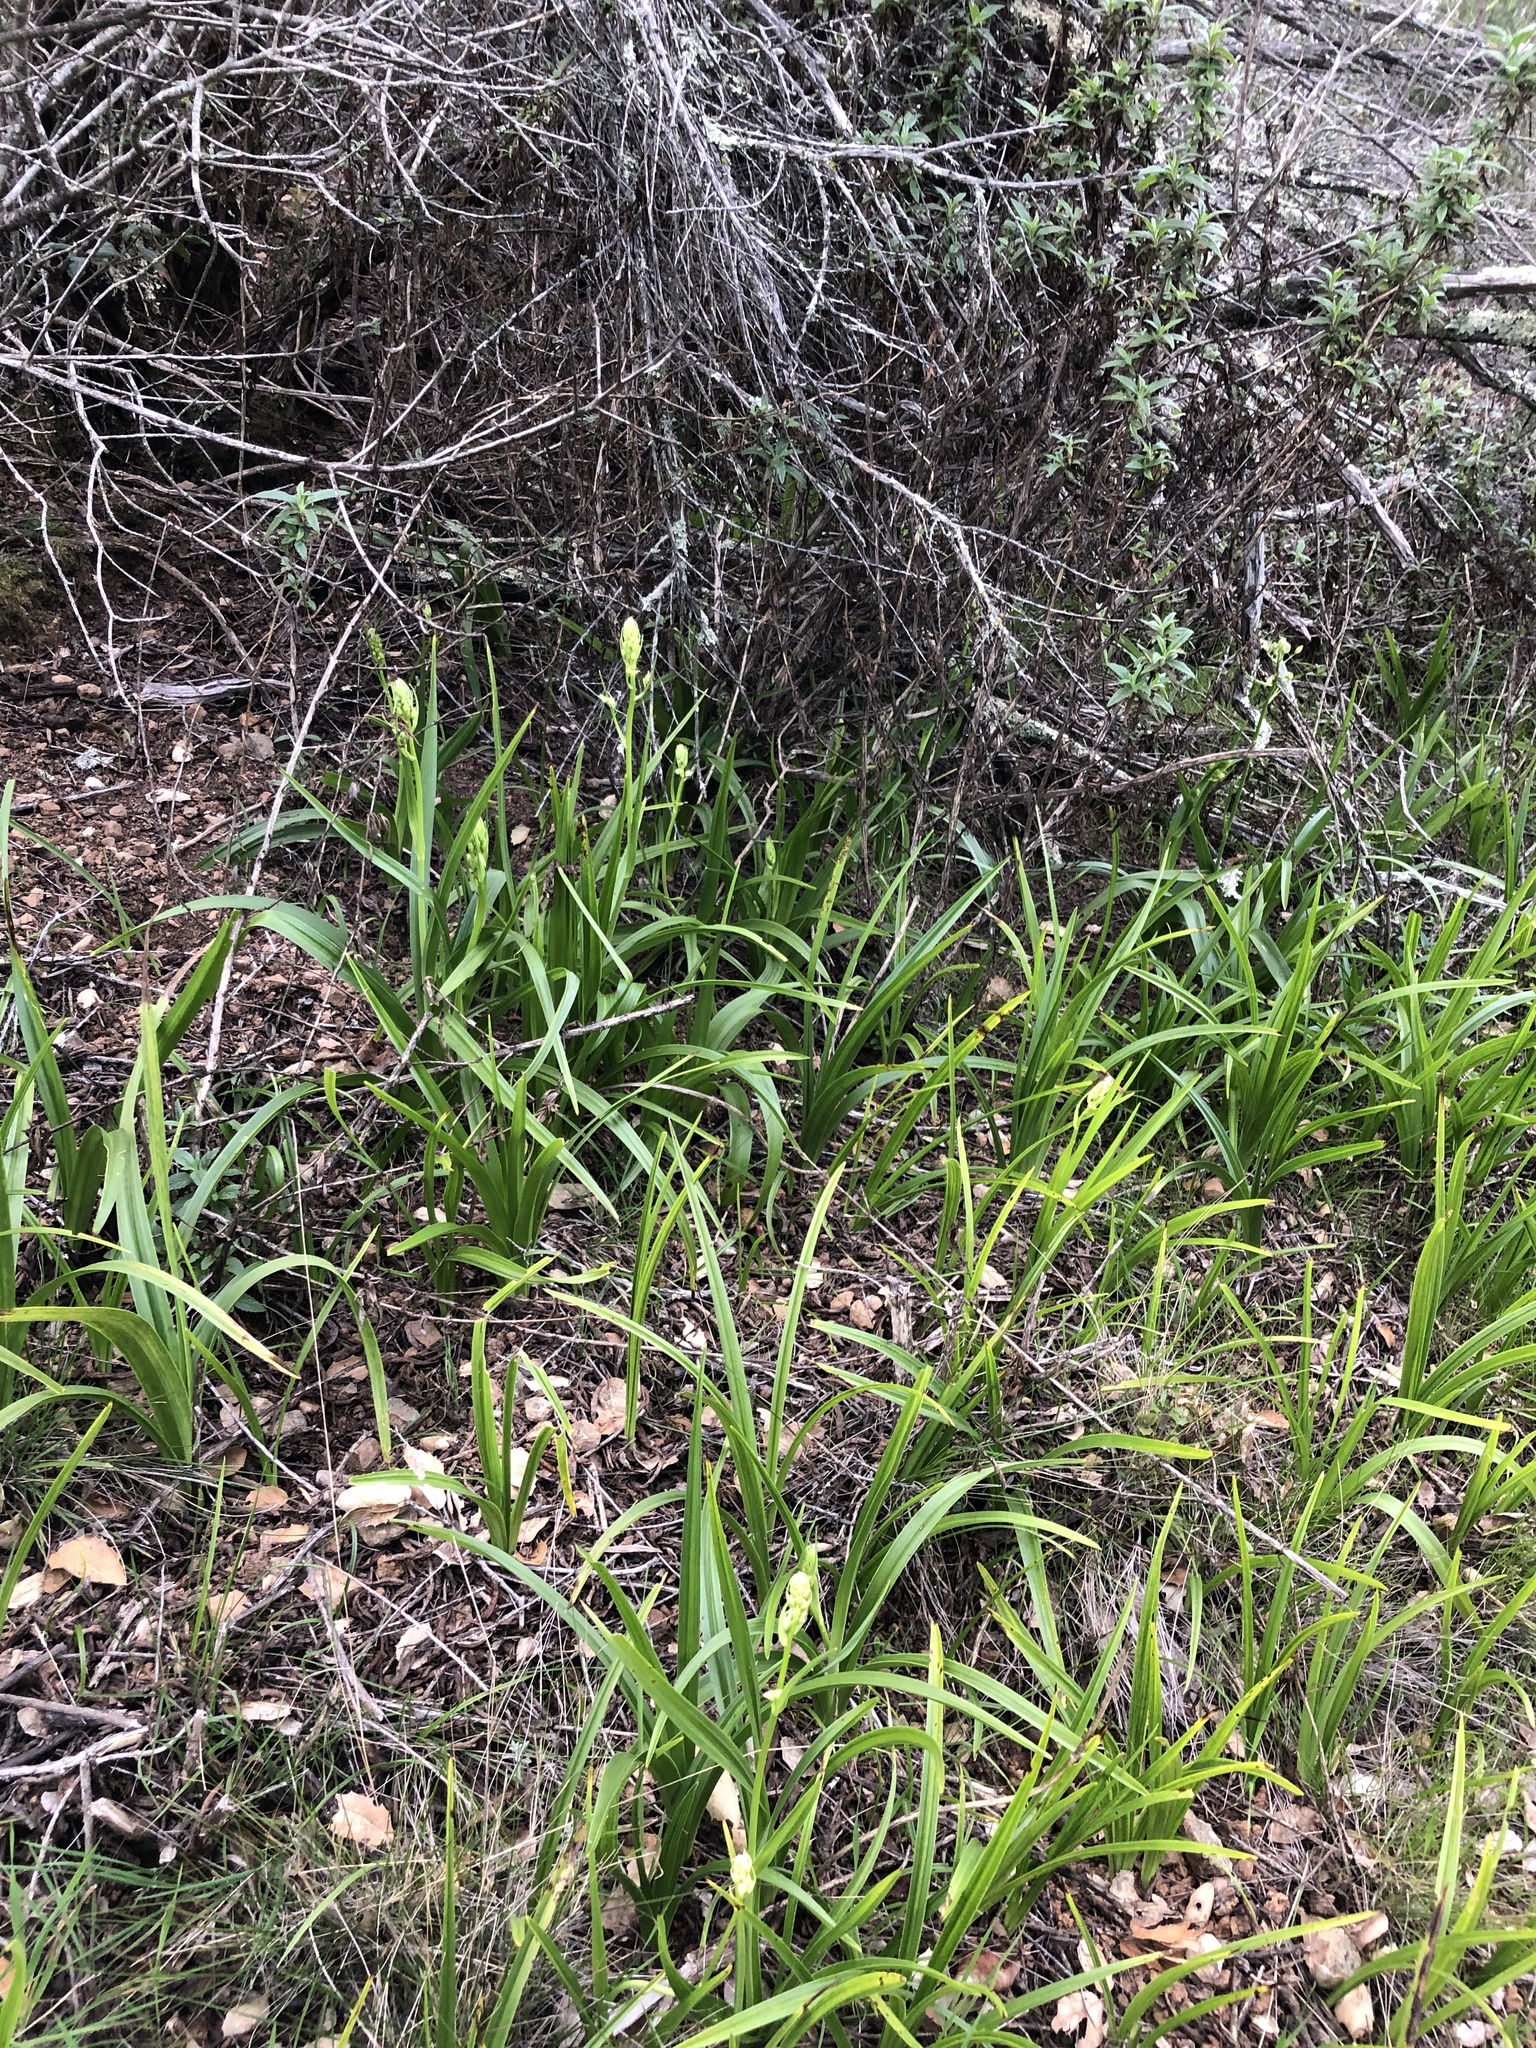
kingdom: Plantae
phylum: Tracheophyta
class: Liliopsida
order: Liliales
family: Melanthiaceae
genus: Toxicoscordion
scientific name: Toxicoscordion fremontii
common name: Fremont's death camas
